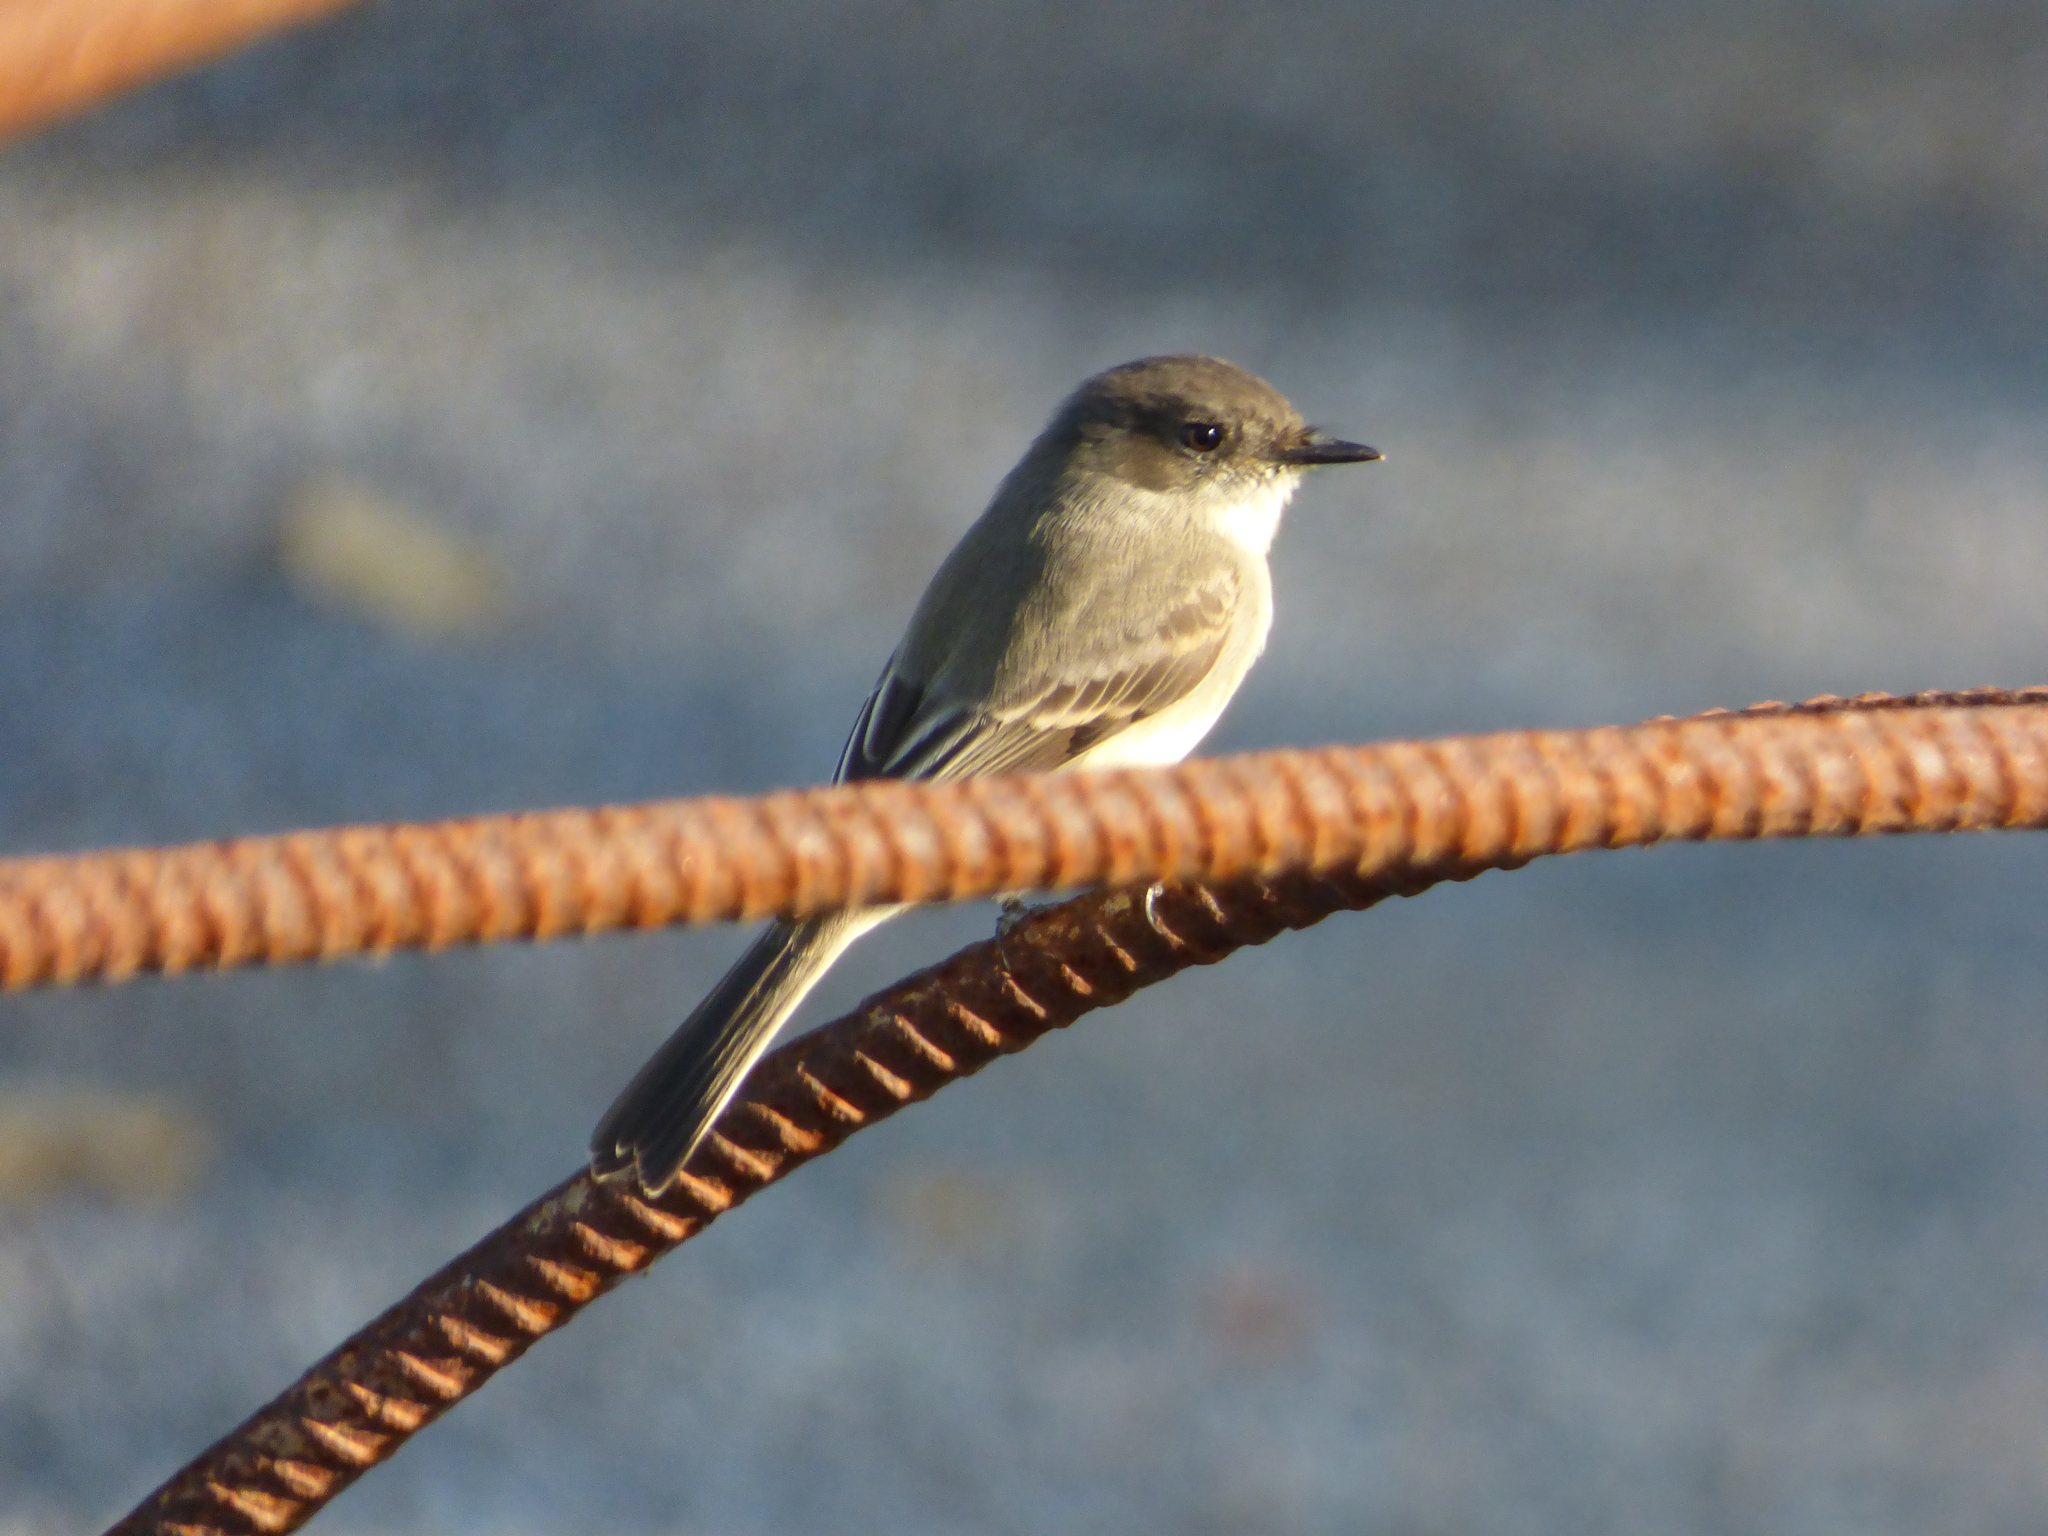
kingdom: Animalia
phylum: Chordata
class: Aves
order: Passeriformes
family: Tyrannidae
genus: Sayornis
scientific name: Sayornis phoebe
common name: Eastern phoebe
